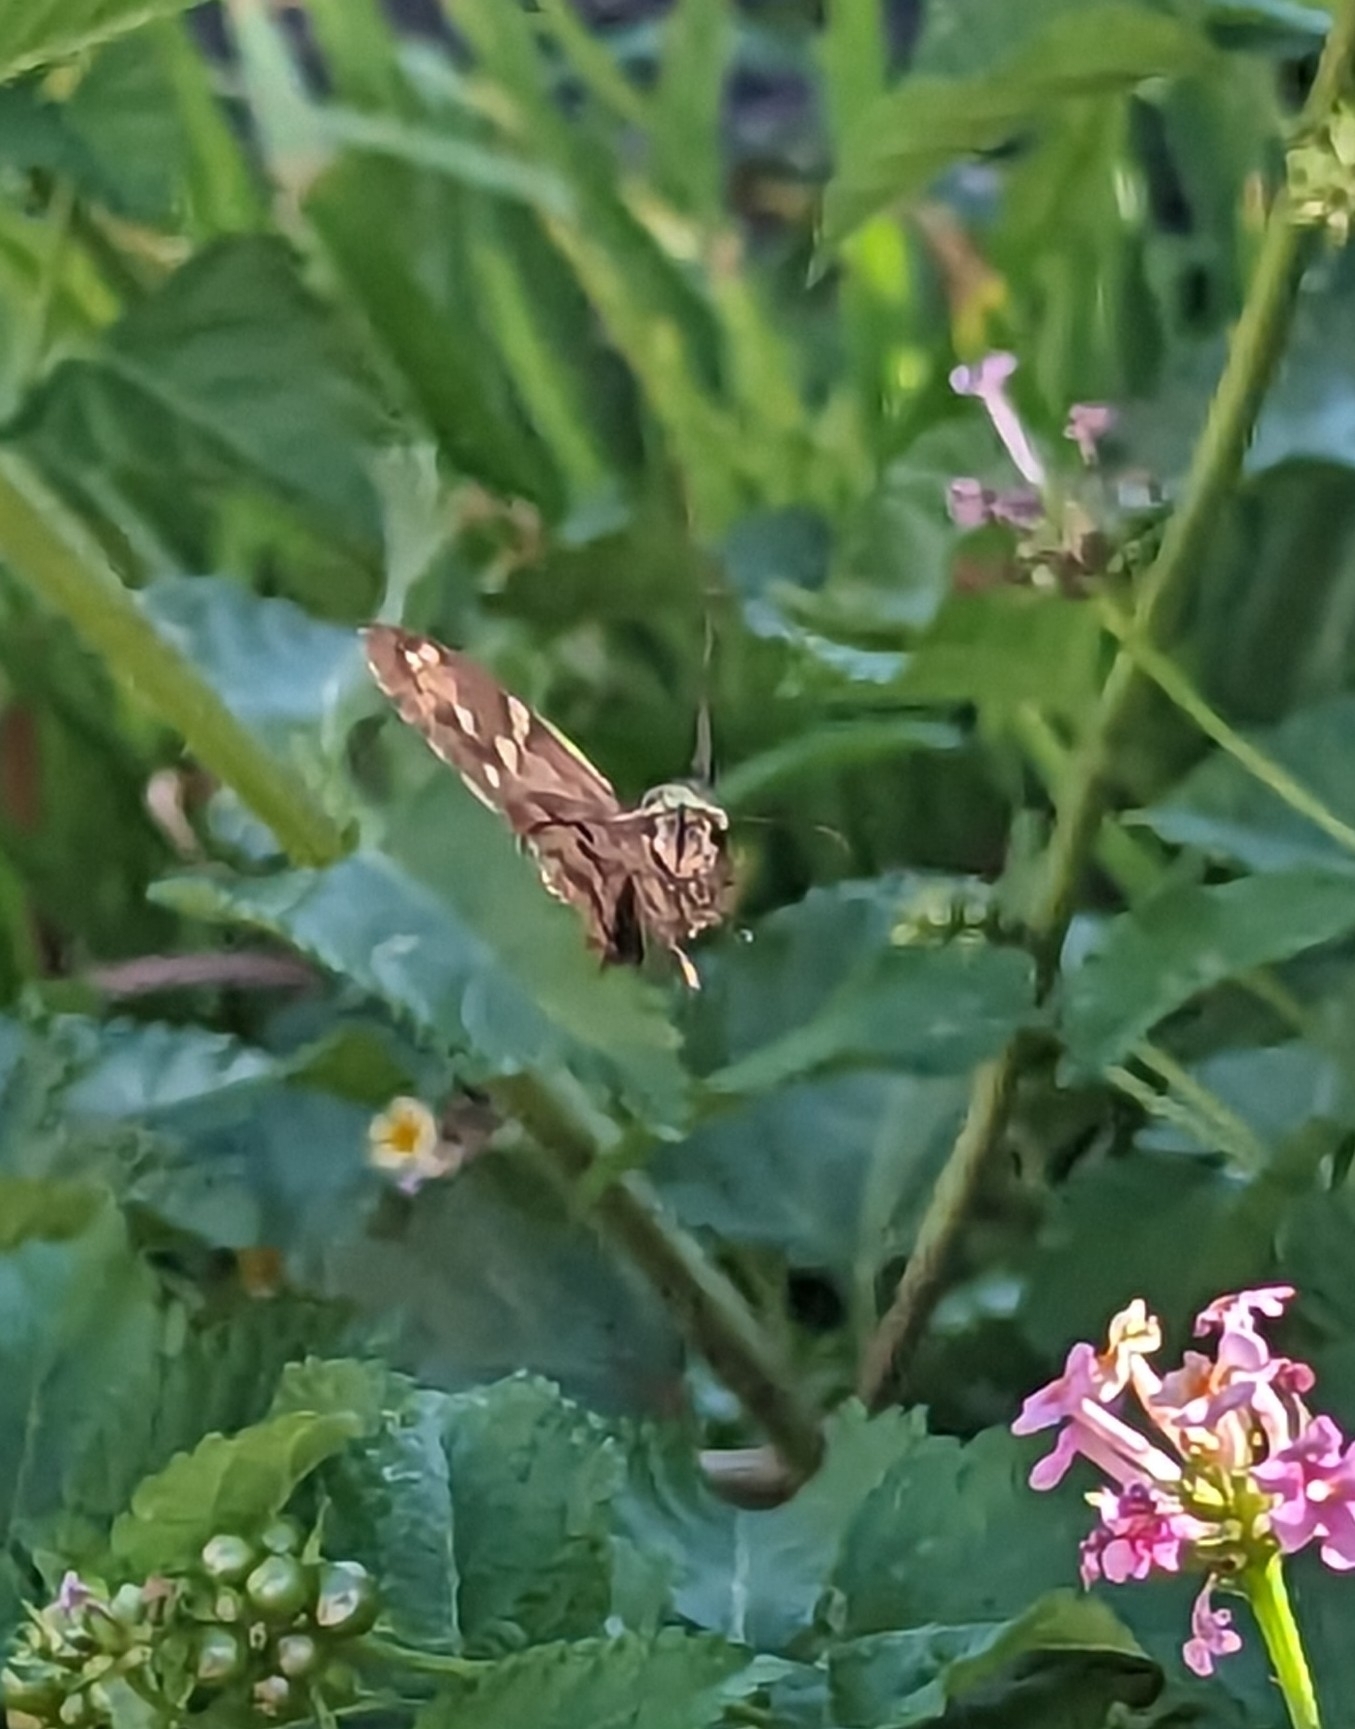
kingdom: Animalia
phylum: Arthropoda
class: Insecta
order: Lepidoptera
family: Hesperiidae
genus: Urbanus
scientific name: Urbanus proteus
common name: Long-tailed skipper
